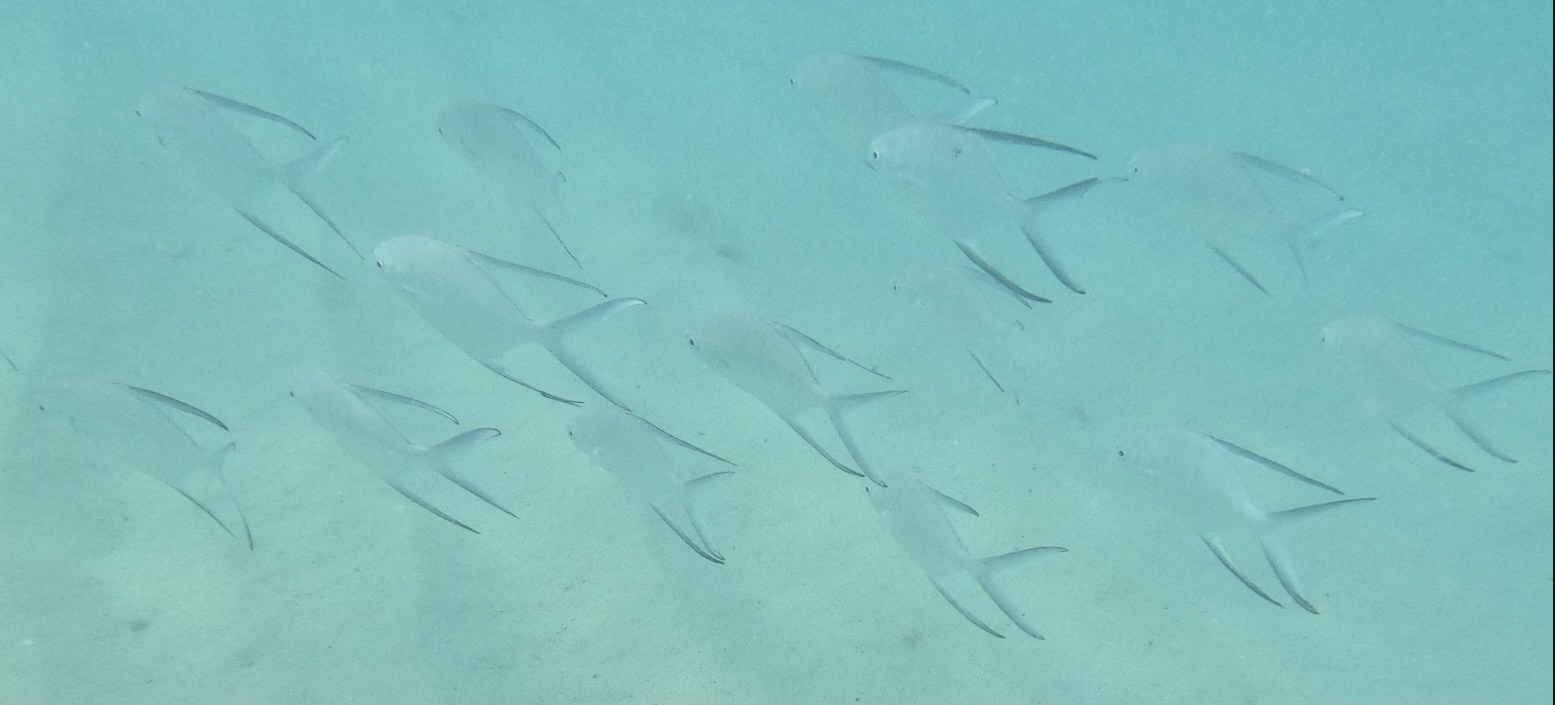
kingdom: Animalia
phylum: Chordata
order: Perciformes
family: Carangidae
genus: Trachinotus
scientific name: Trachinotus goodei
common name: Palometa
